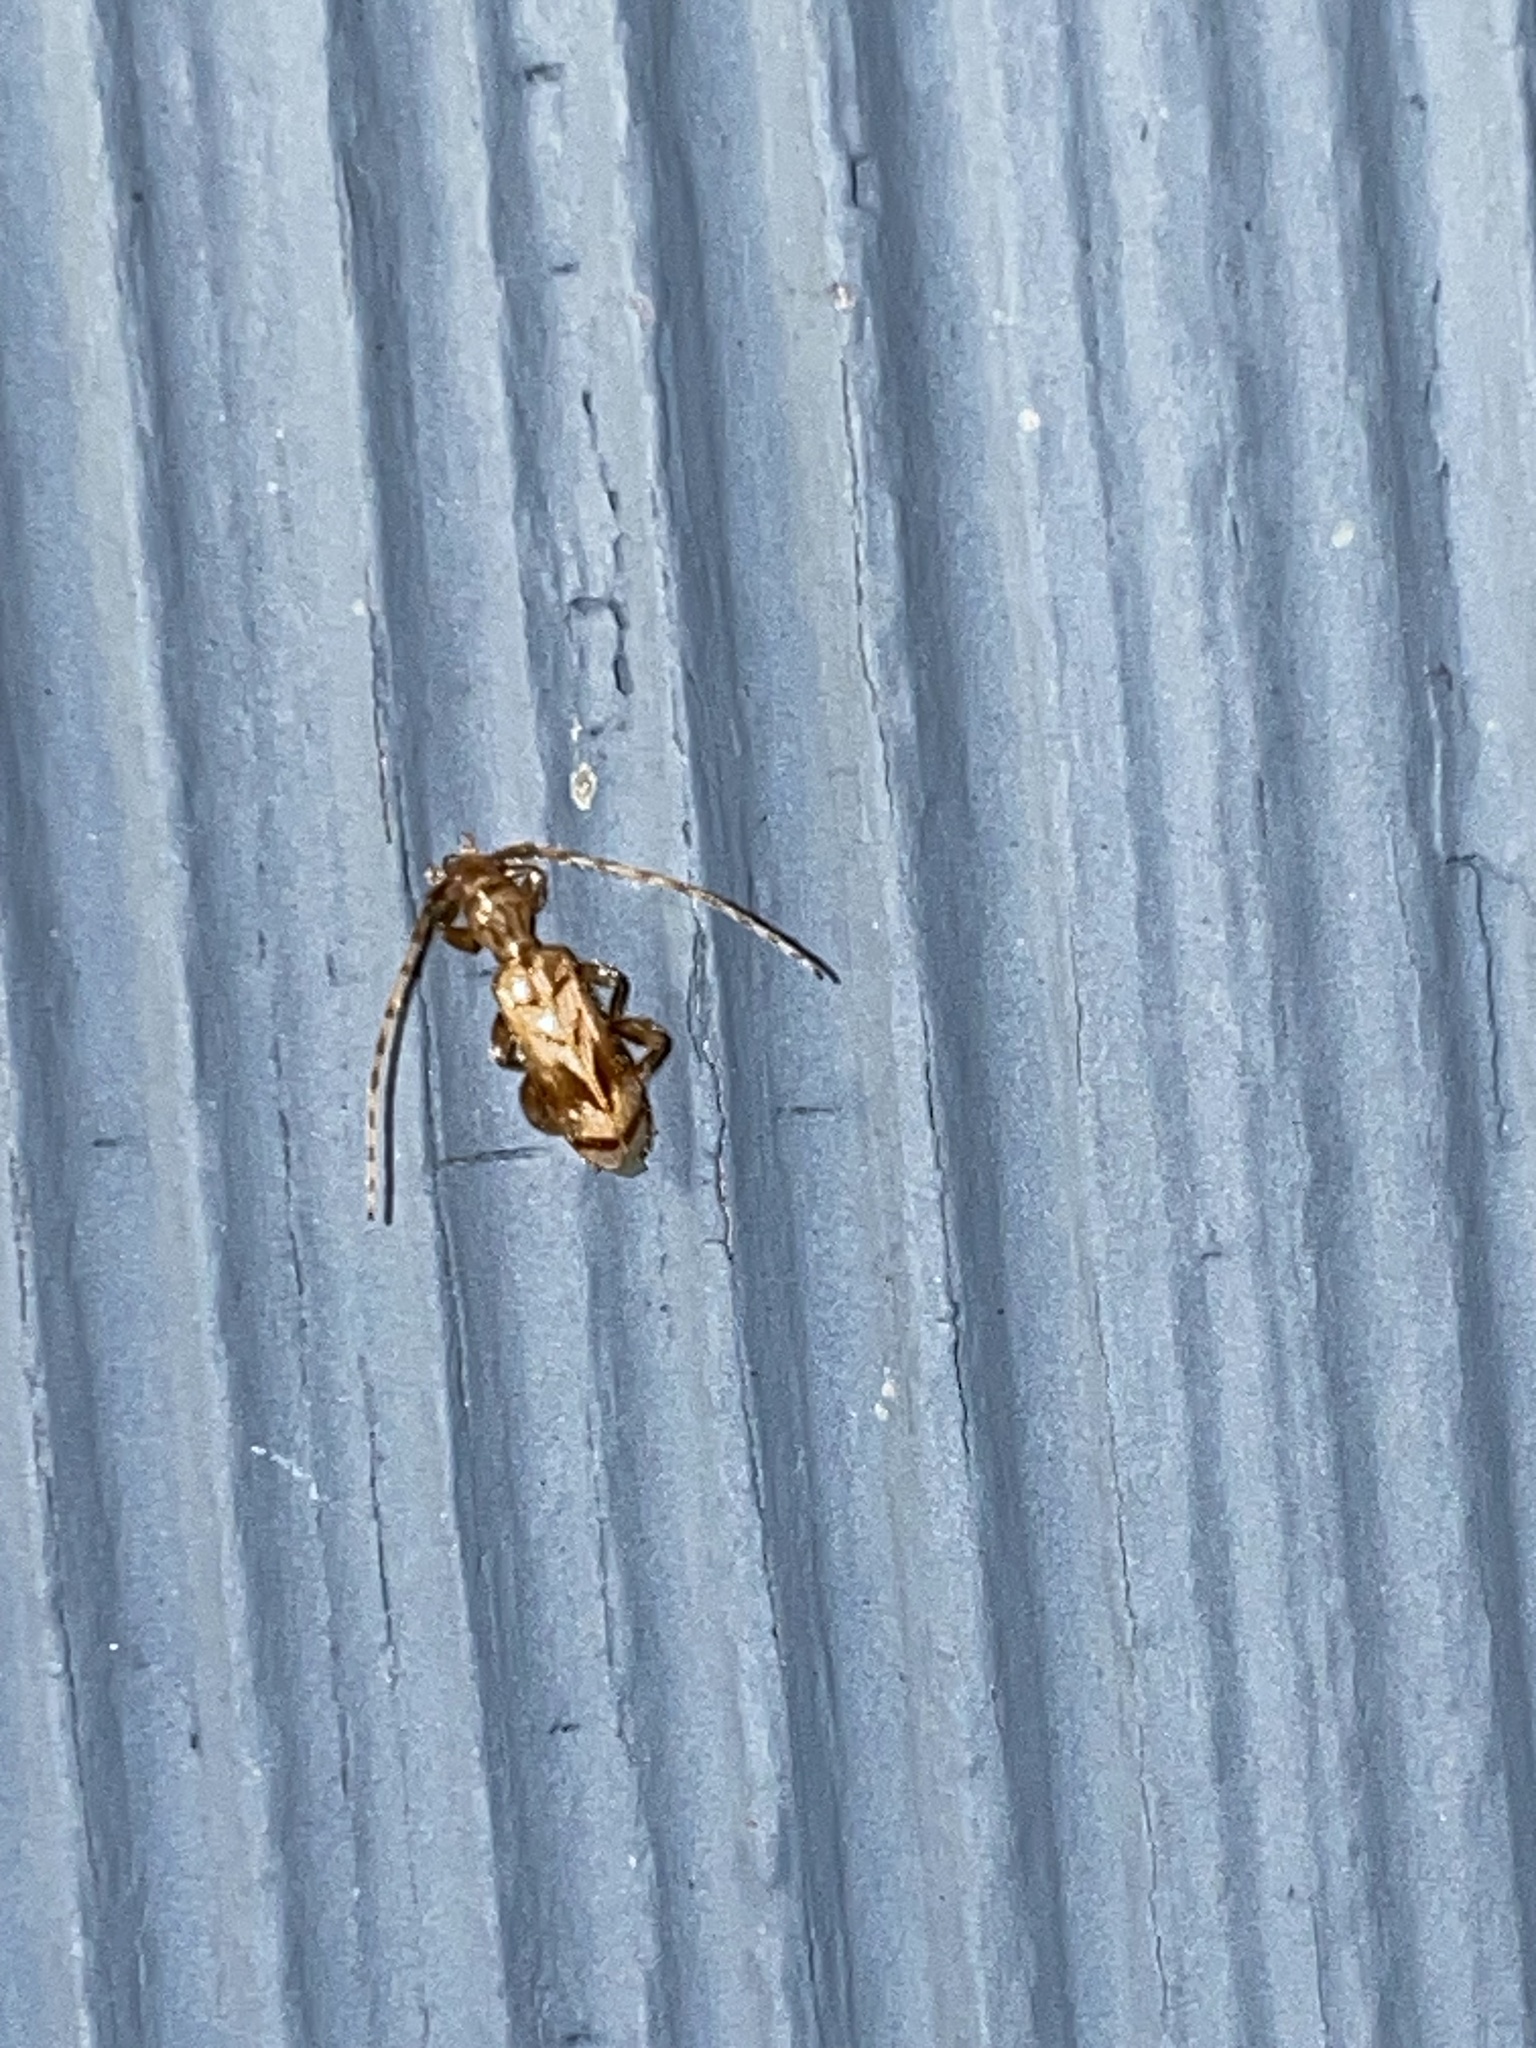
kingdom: Animalia
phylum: Arthropoda
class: Insecta
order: Coleoptera
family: Cerambycidae
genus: Obrium
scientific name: Obrium maculatum
